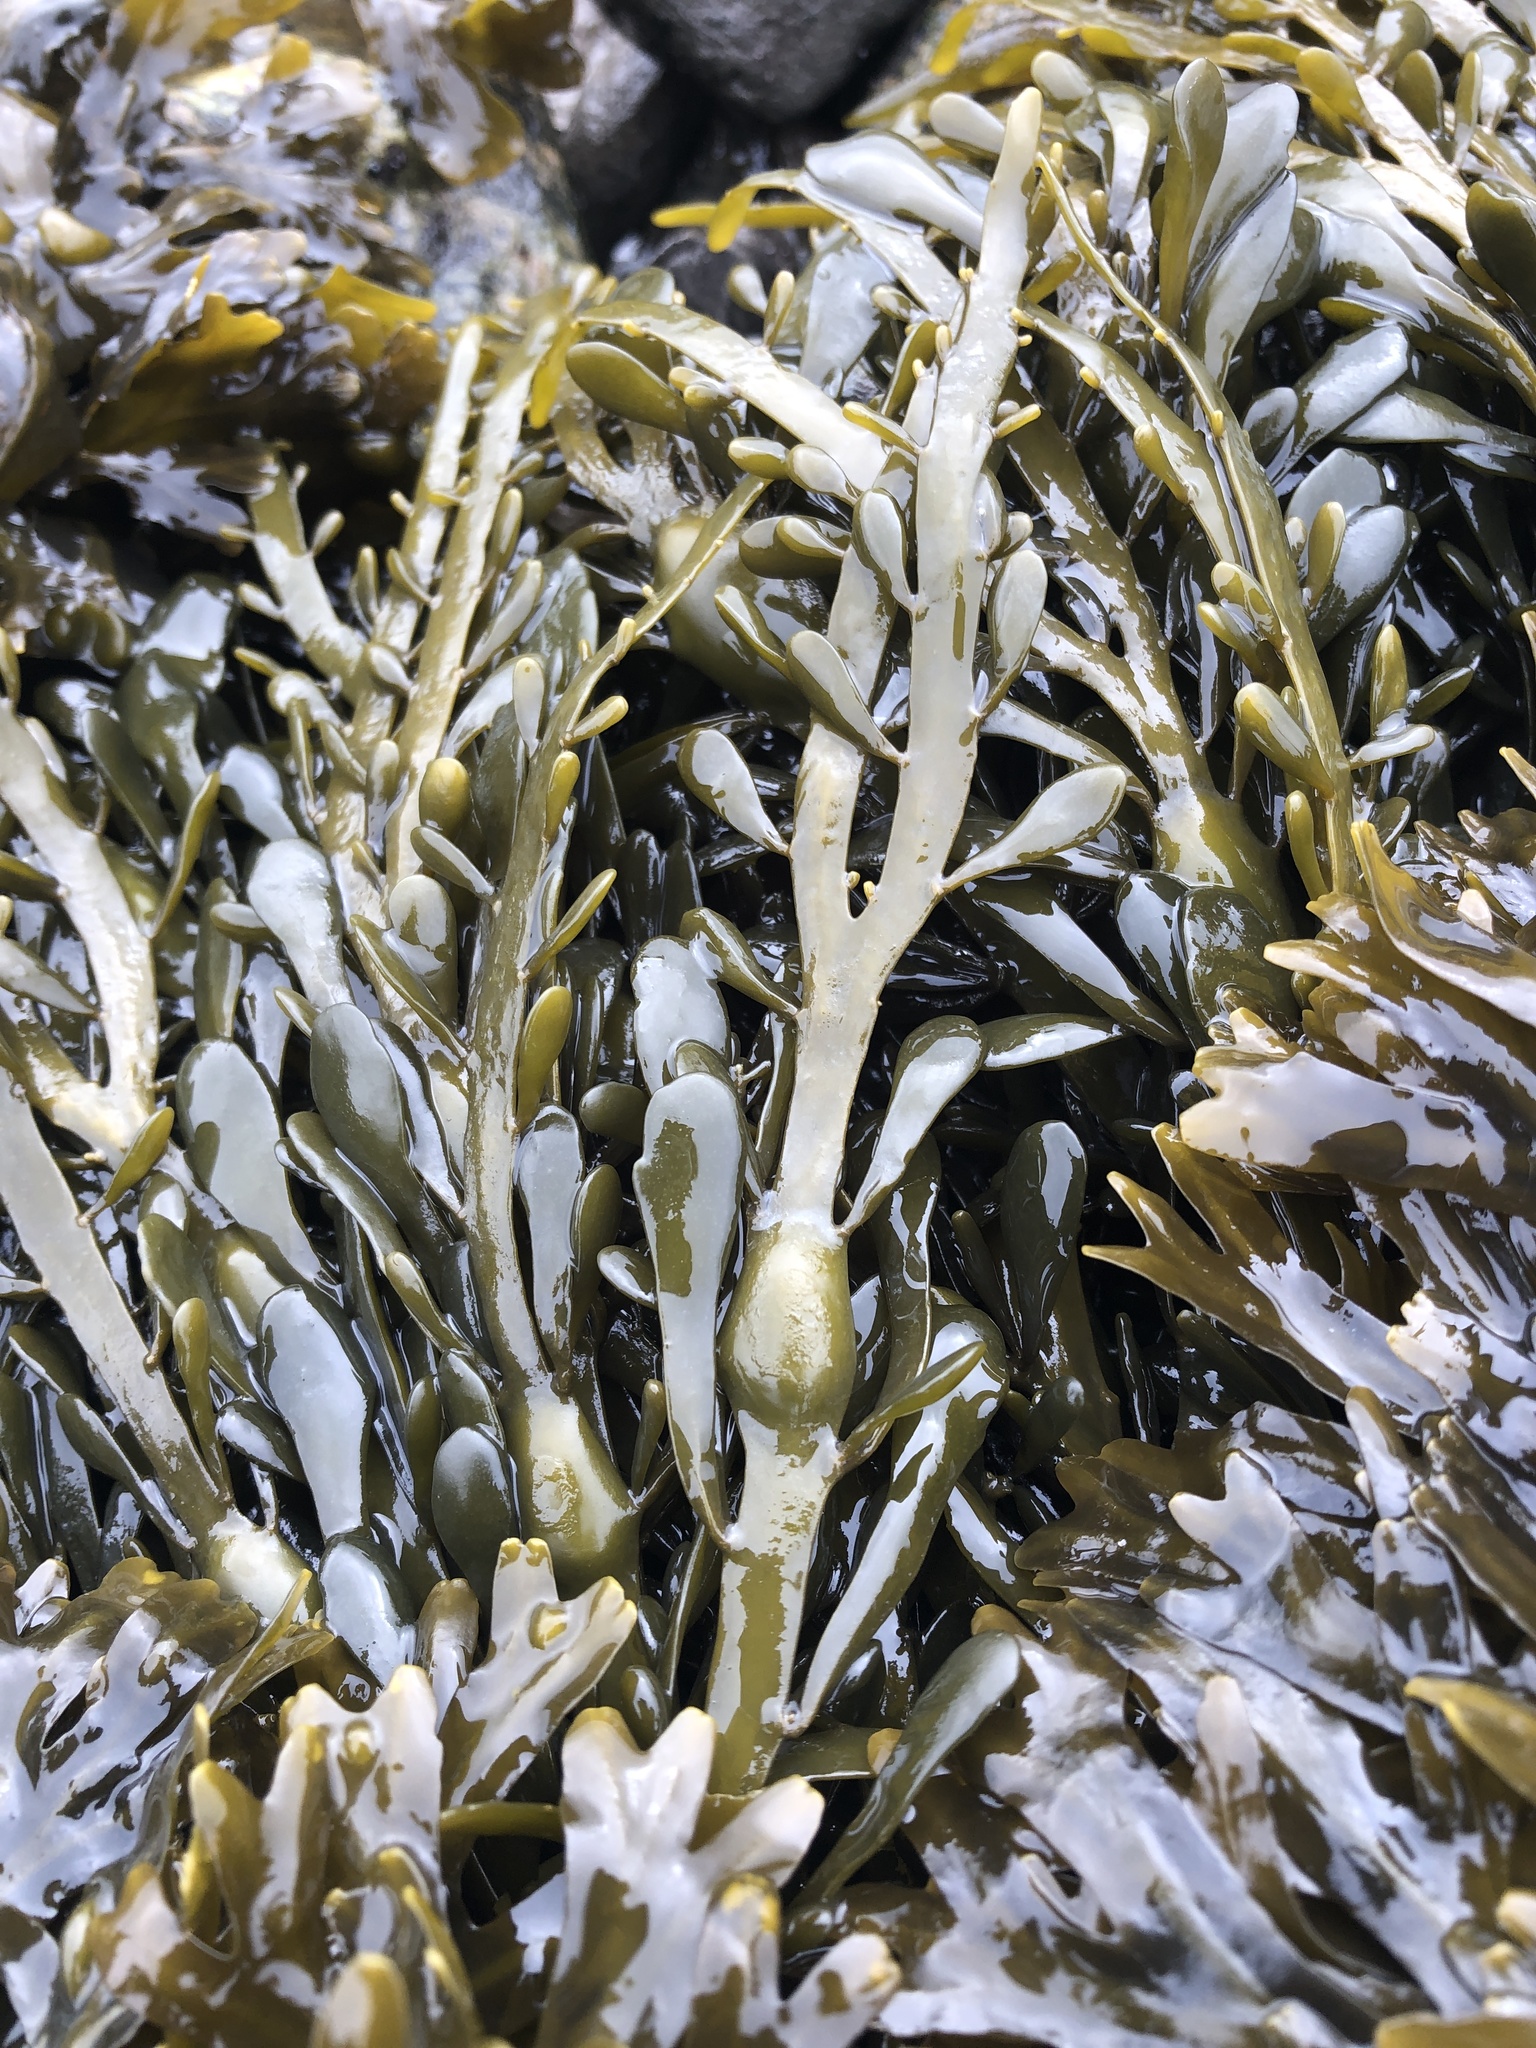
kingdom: Chromista
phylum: Ochrophyta
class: Phaeophyceae
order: Fucales
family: Fucaceae
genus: Ascophyllum
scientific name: Ascophyllum nodosum
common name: Knotted wrack
